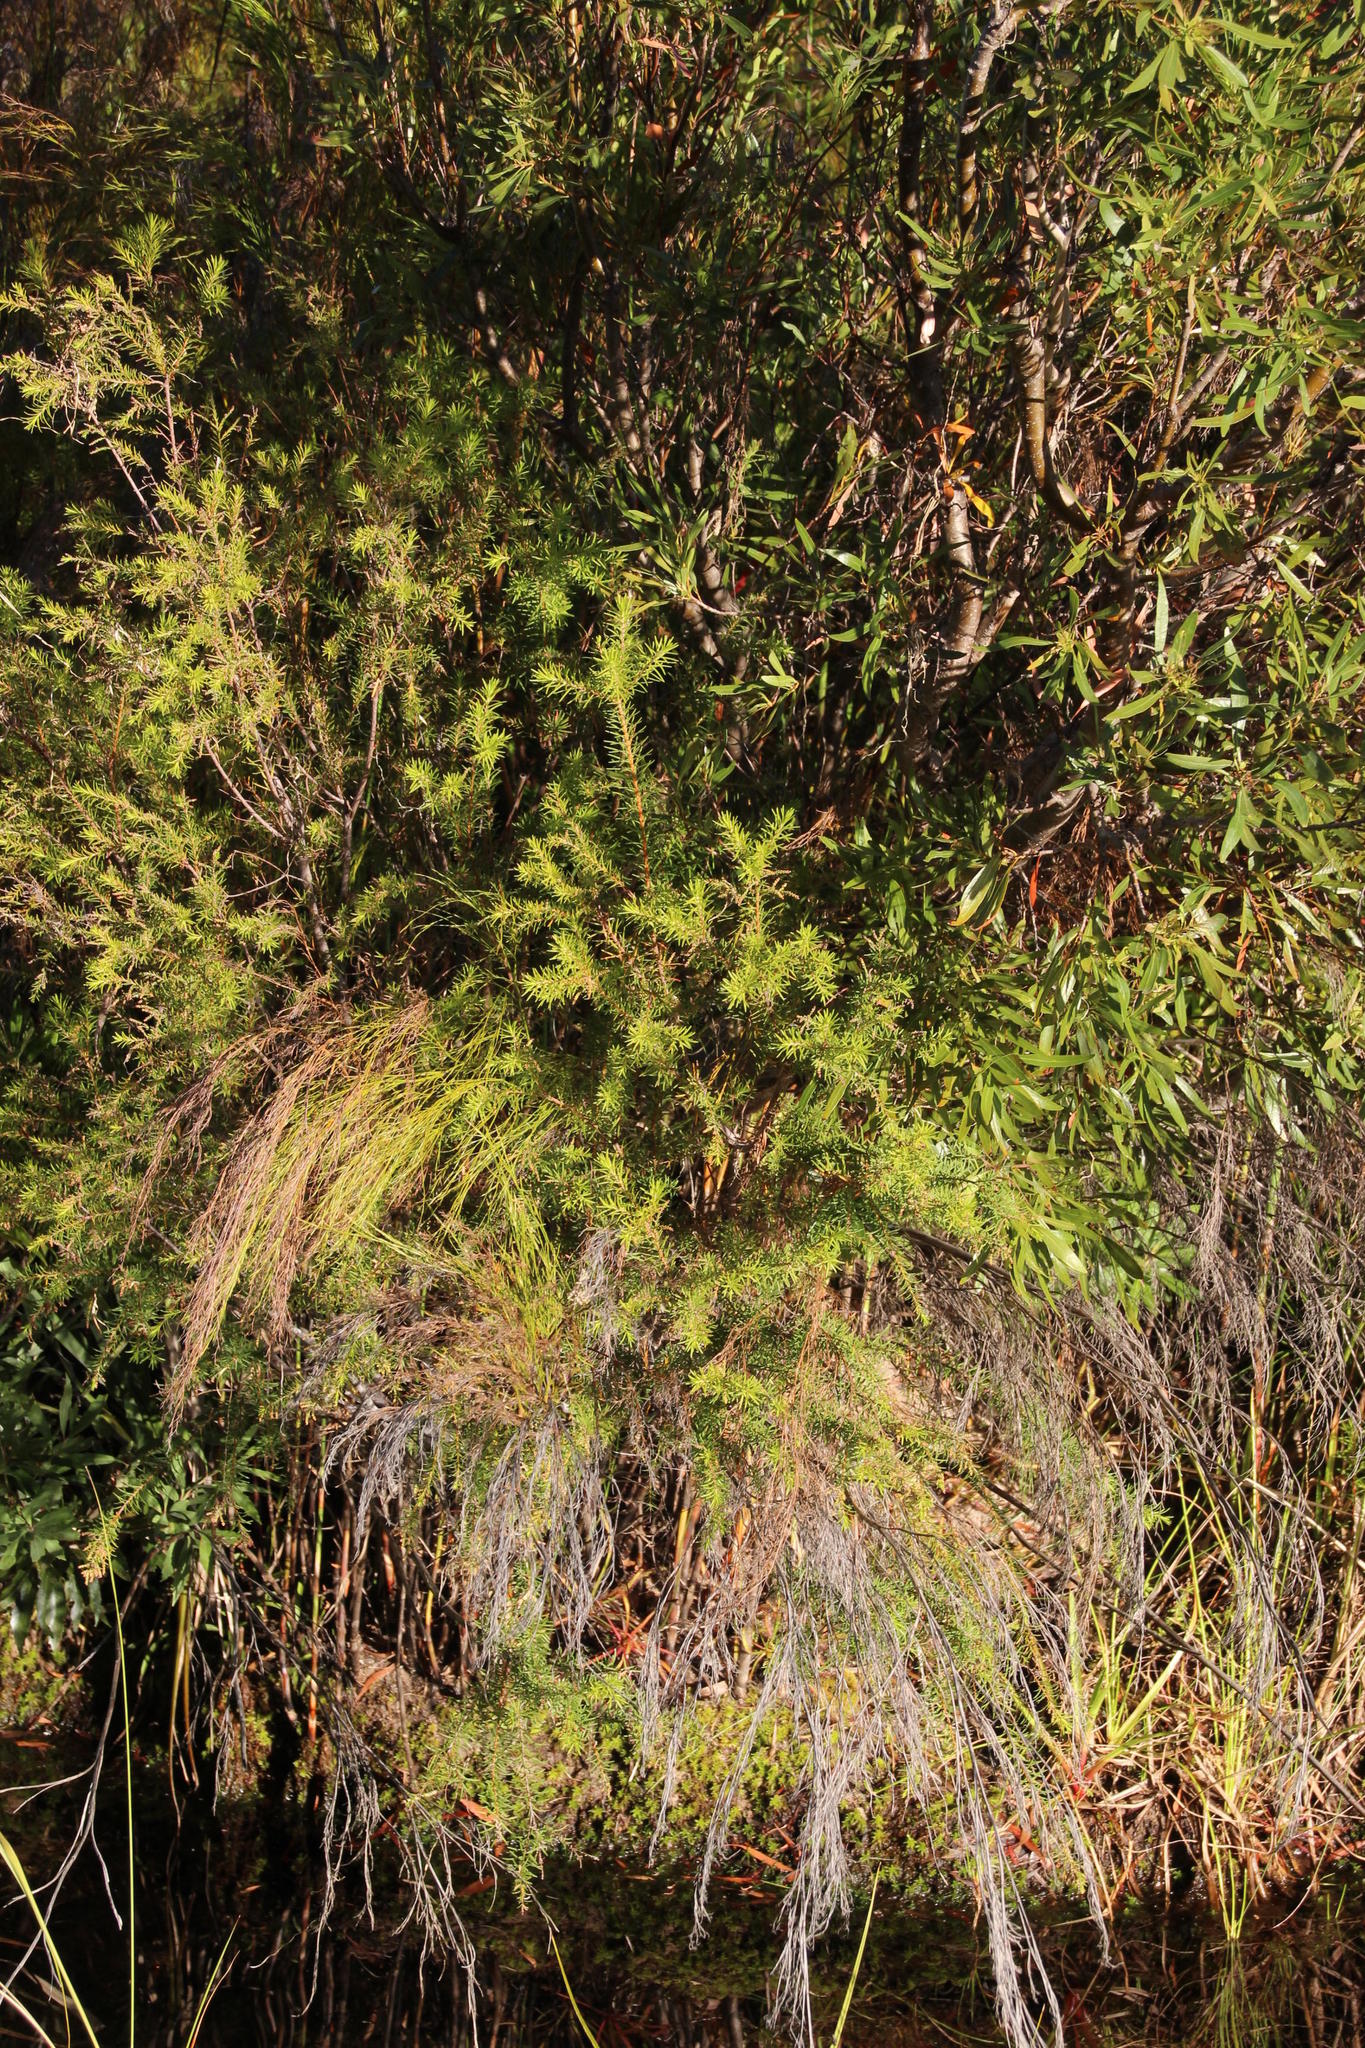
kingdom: Plantae
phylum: Tracheophyta
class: Magnoliopsida
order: Bruniales
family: Bruniaceae
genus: Brunia
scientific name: Brunia africana
